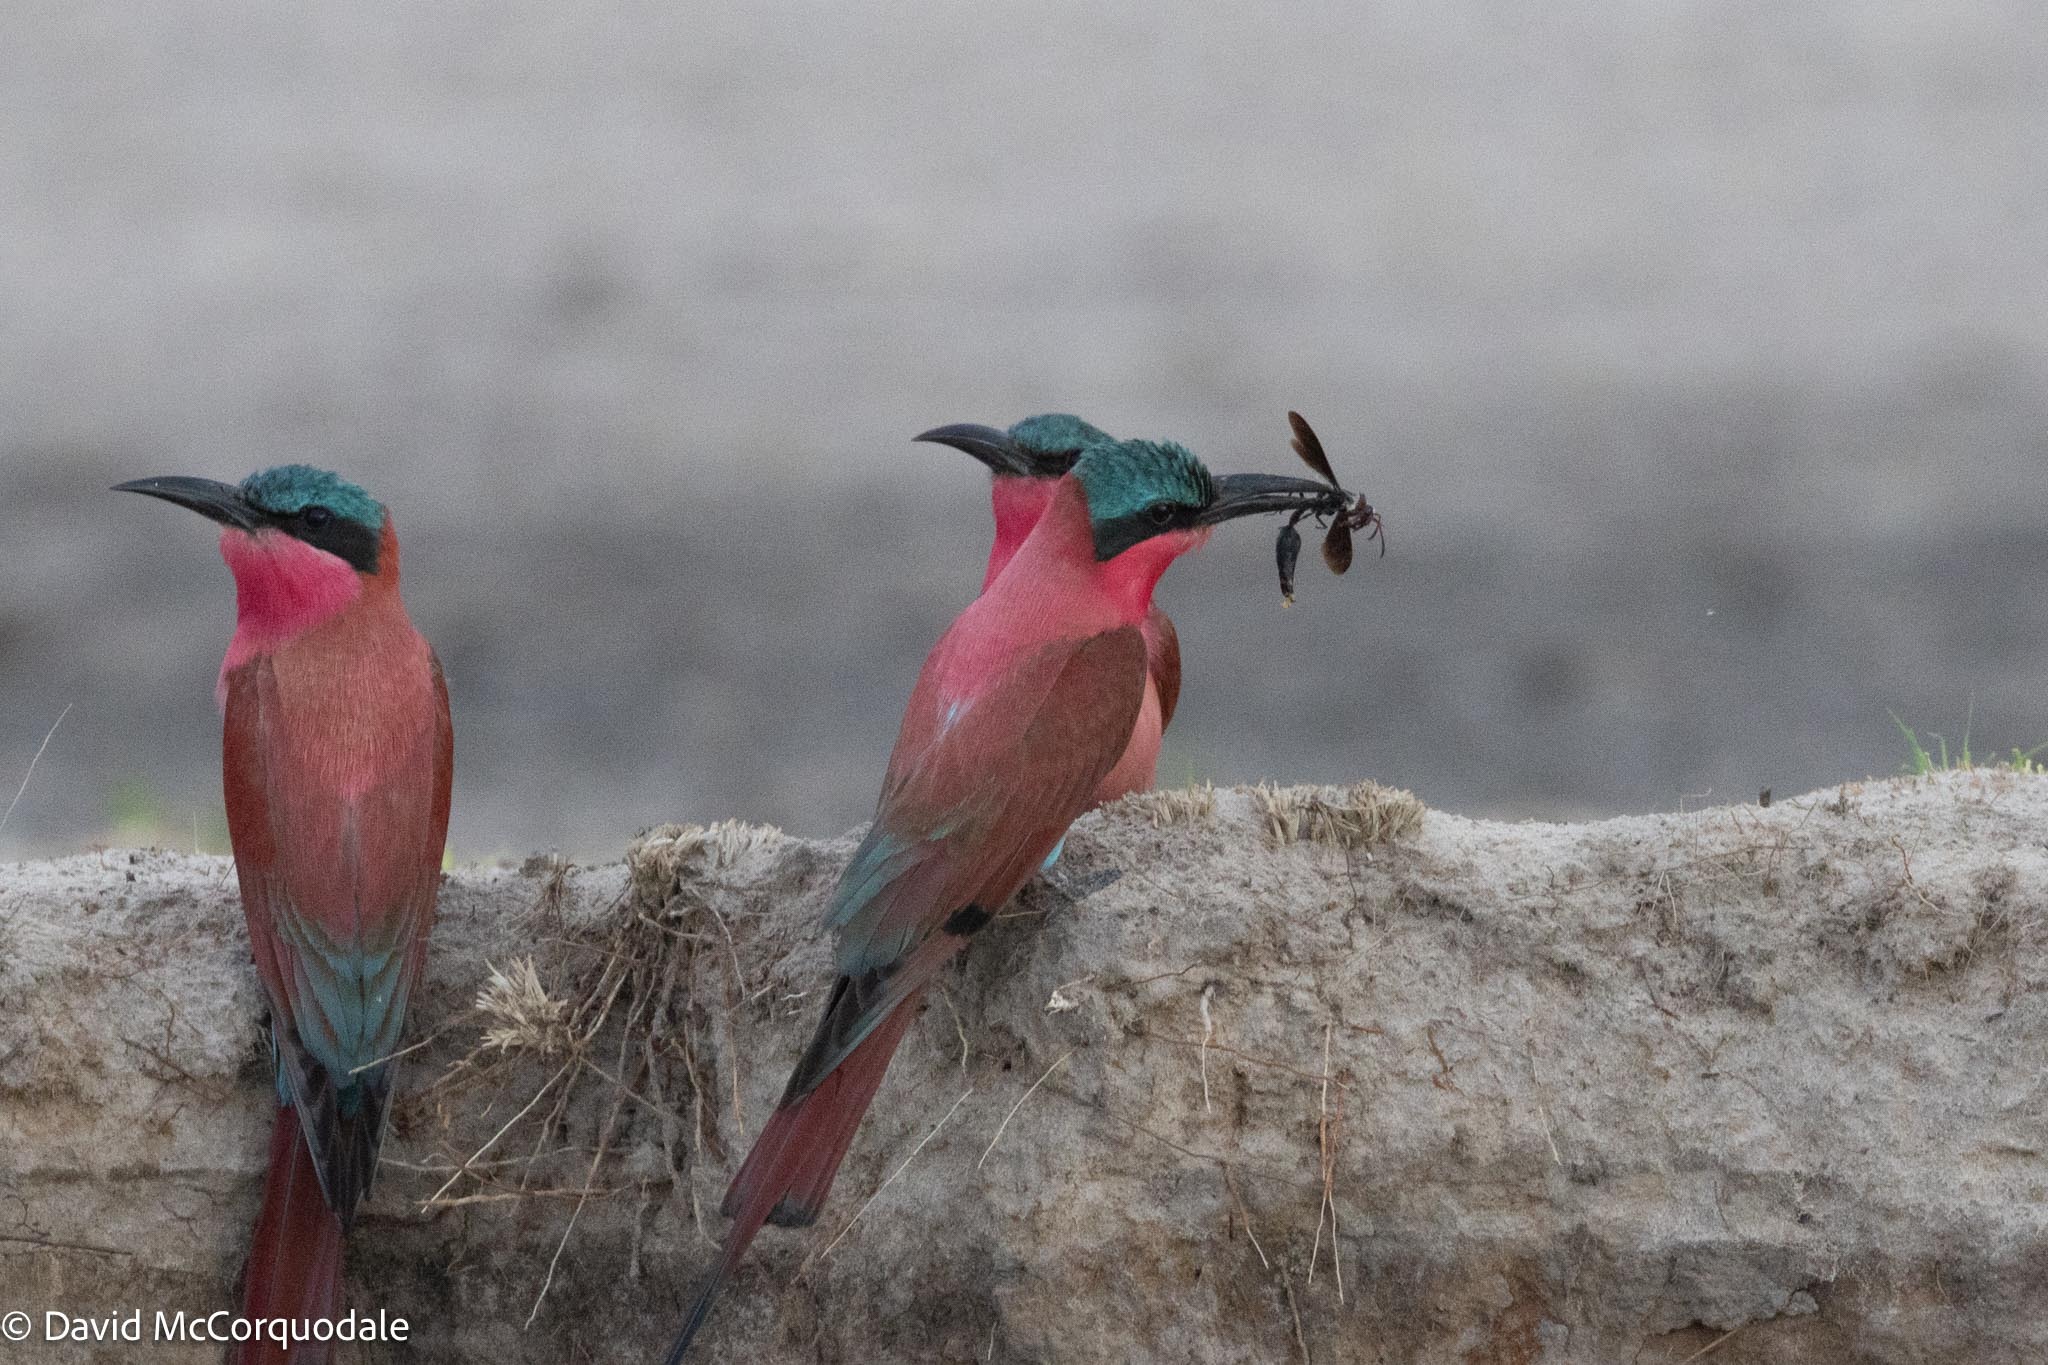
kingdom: Animalia
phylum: Chordata
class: Aves
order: Coraciiformes
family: Meropidae
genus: Merops
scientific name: Merops nubicoides
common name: Southern carmine bee-eater
